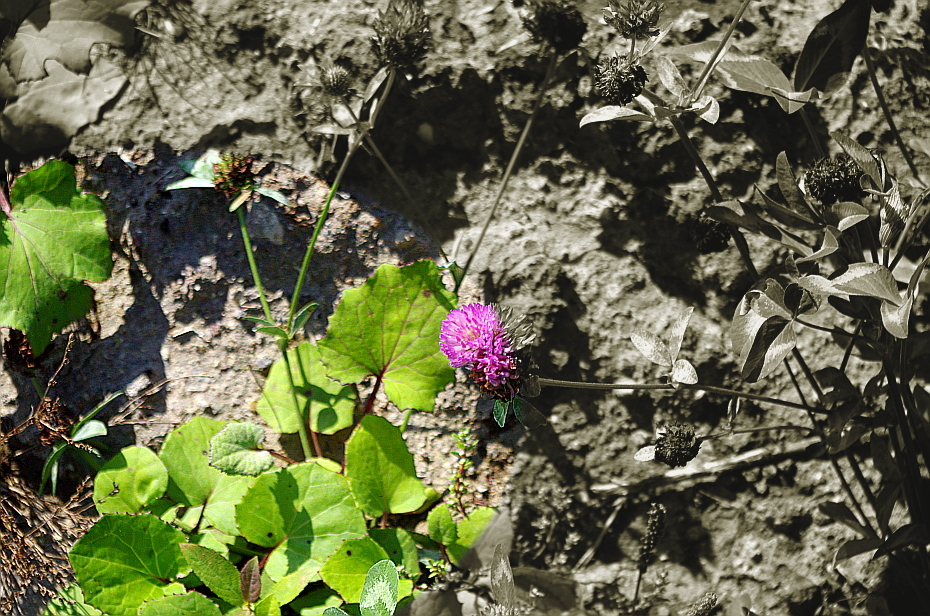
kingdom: Plantae
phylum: Tracheophyta
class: Magnoliopsida
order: Asterales
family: Asteraceae
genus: Tussilago
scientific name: Tussilago farfara
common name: Coltsfoot
